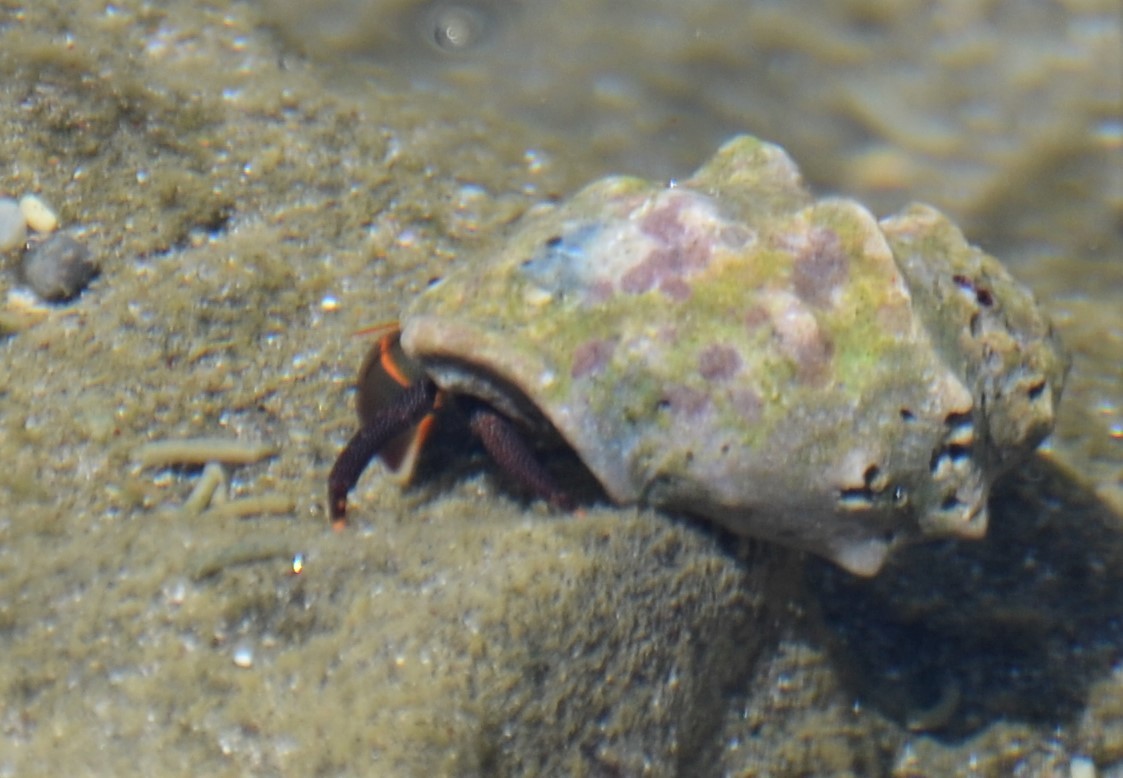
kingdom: Animalia
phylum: Arthropoda
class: Malacostraca
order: Decapoda
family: Diogenidae
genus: Calcinus
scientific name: Calcinus obscurus
